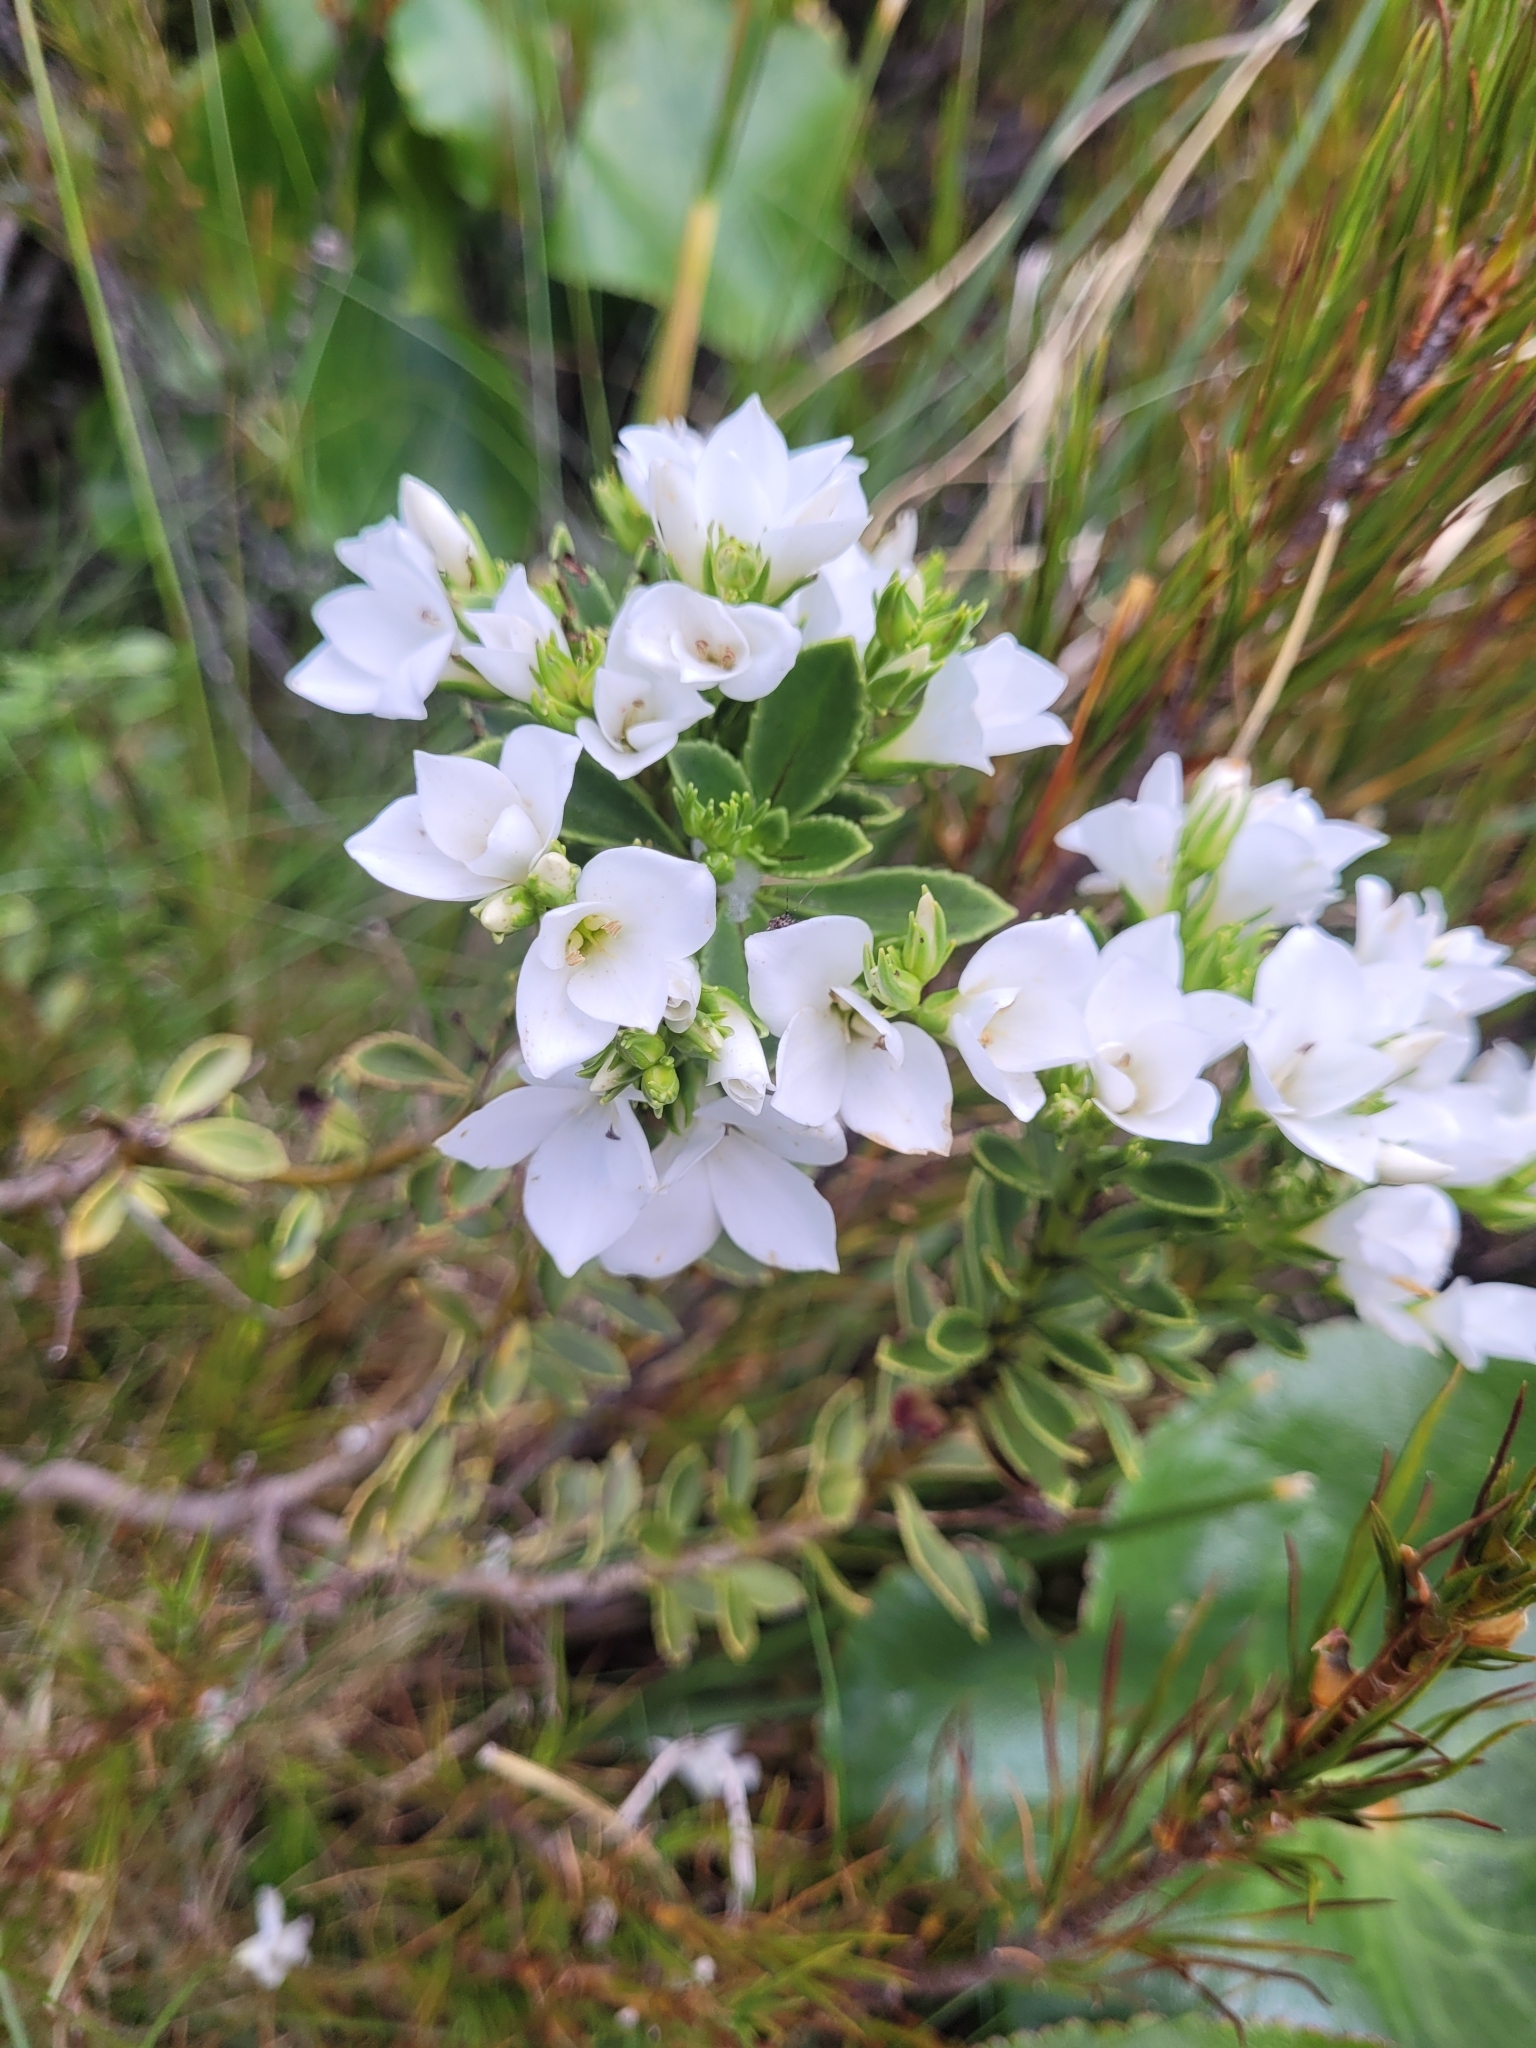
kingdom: Plantae
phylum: Tracheophyta
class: Magnoliopsida
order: Lamiales
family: Plantaginaceae
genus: Veronica
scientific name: Veronica macrantha
